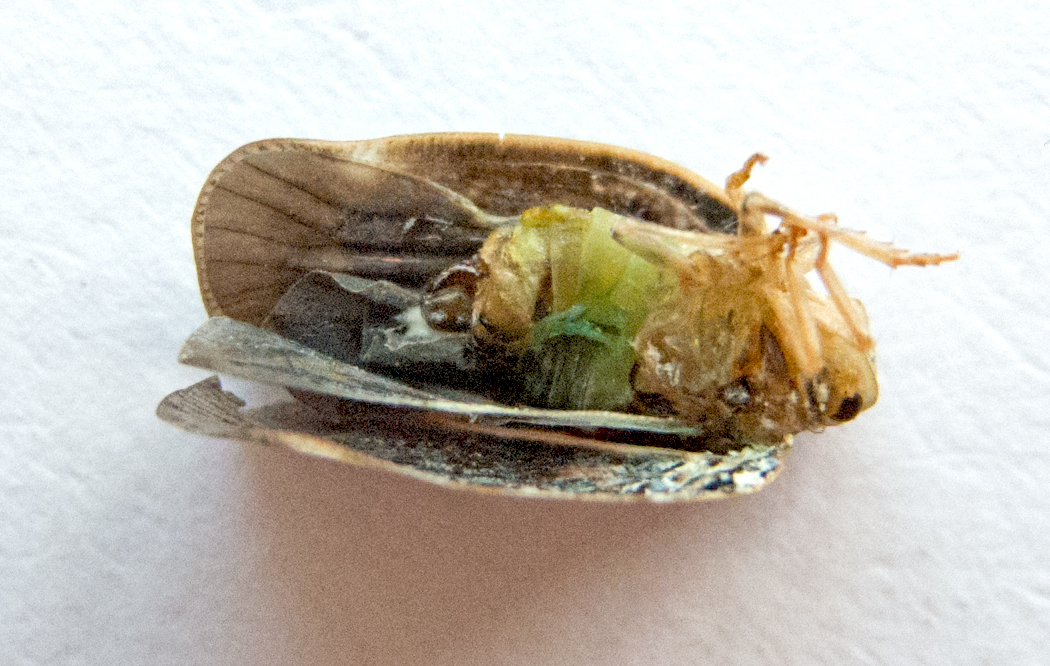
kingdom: Animalia
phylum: Arthropoda
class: Insecta
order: Hemiptera
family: Flatidae
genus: Metcalfa
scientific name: Metcalfa pruinosa
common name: Citrus flatid planthopper
